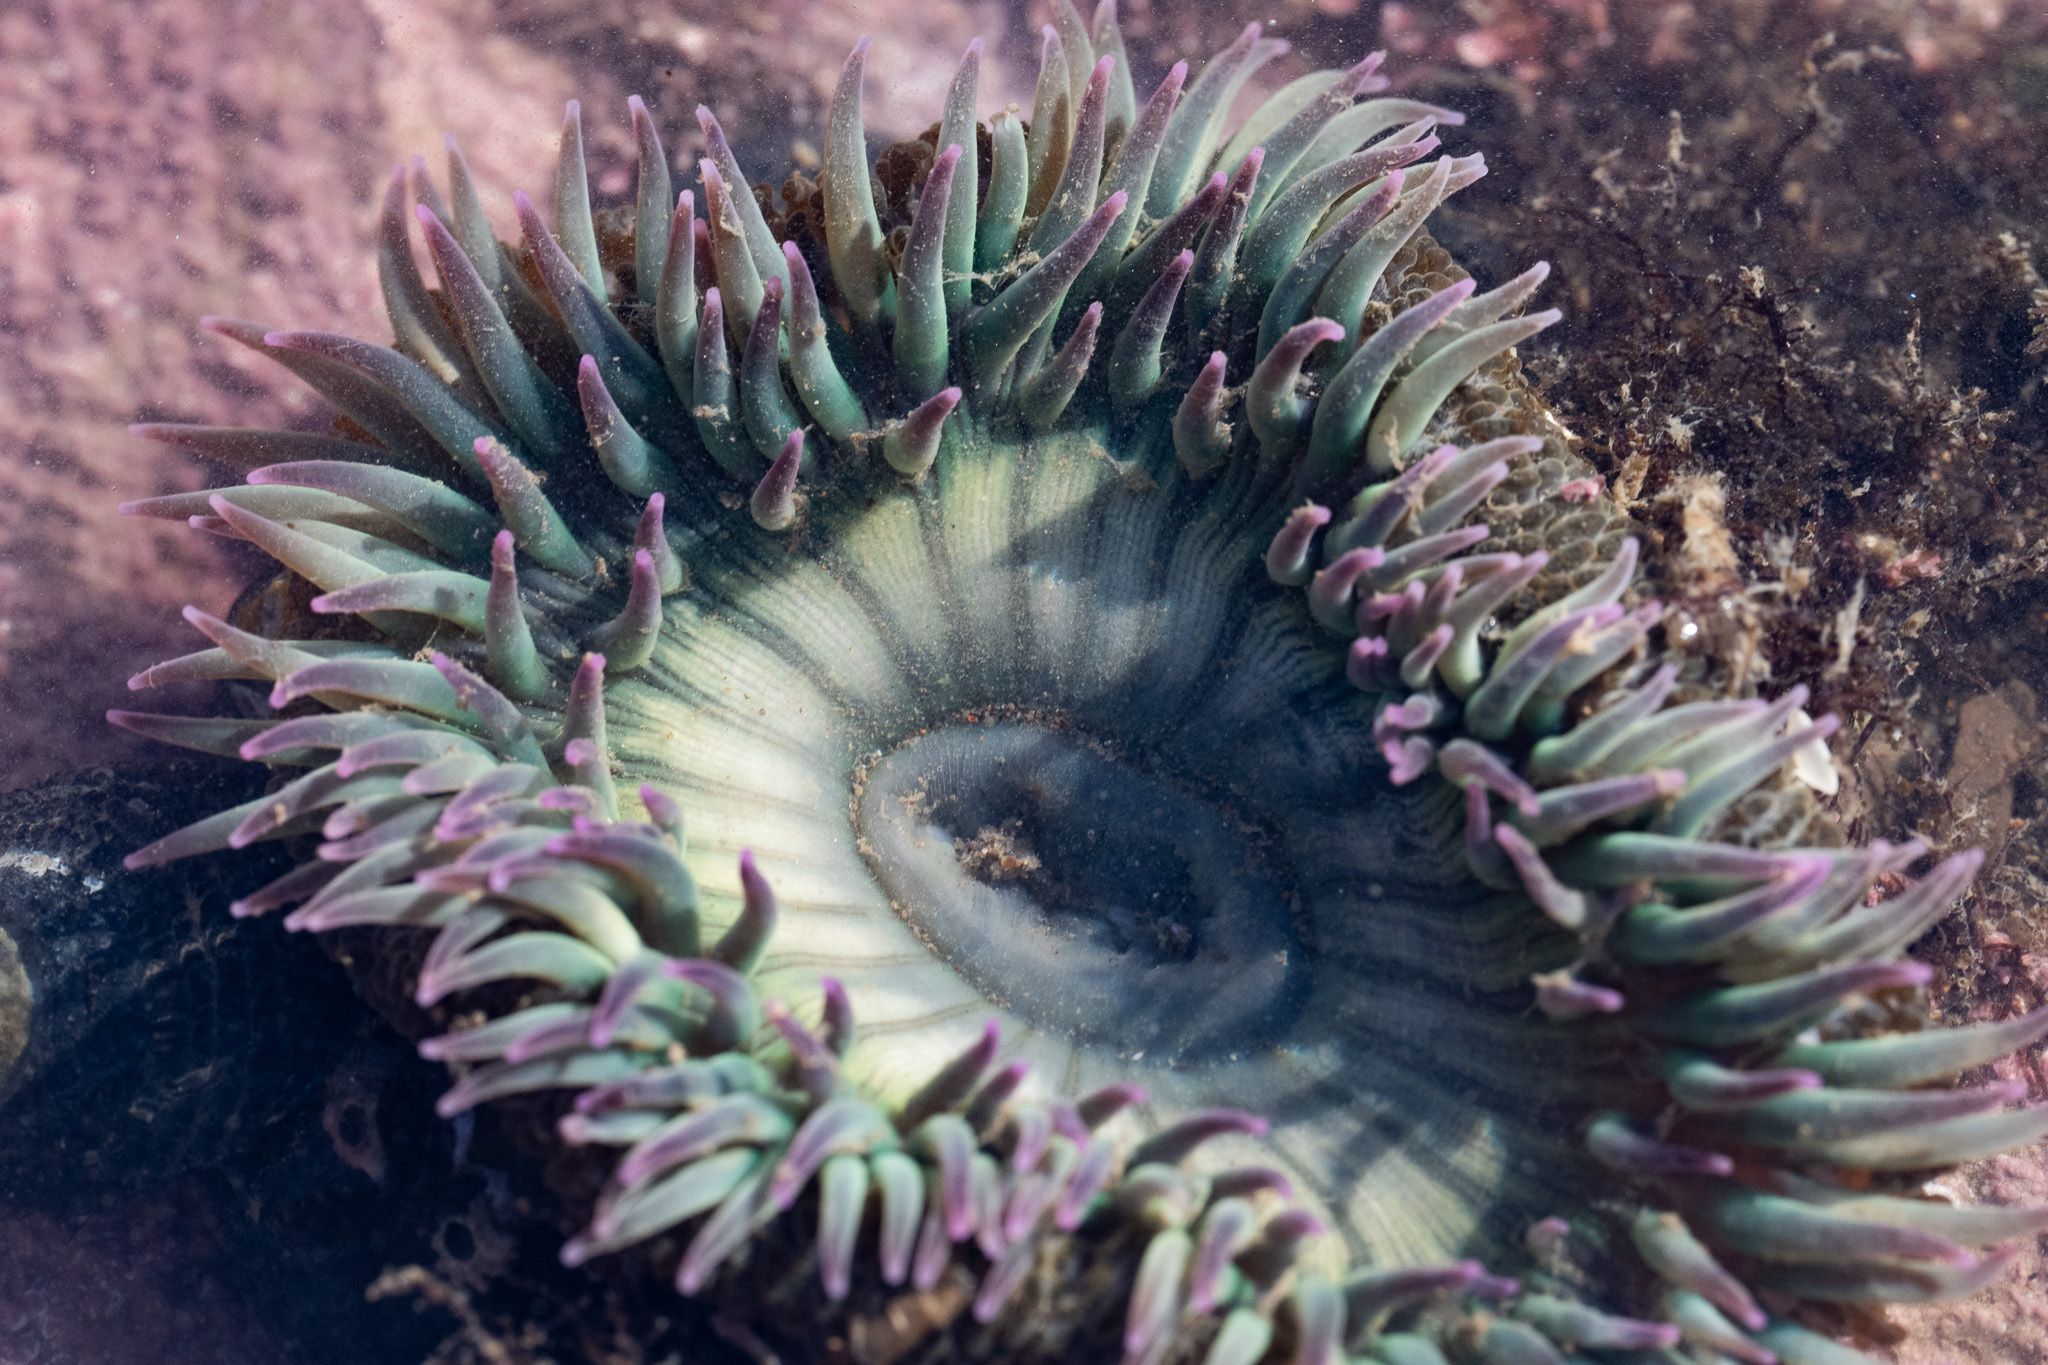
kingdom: Animalia
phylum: Cnidaria
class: Anthozoa
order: Actiniaria
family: Actiniidae
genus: Anthopleura
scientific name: Anthopleura sola
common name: Sun anemone
